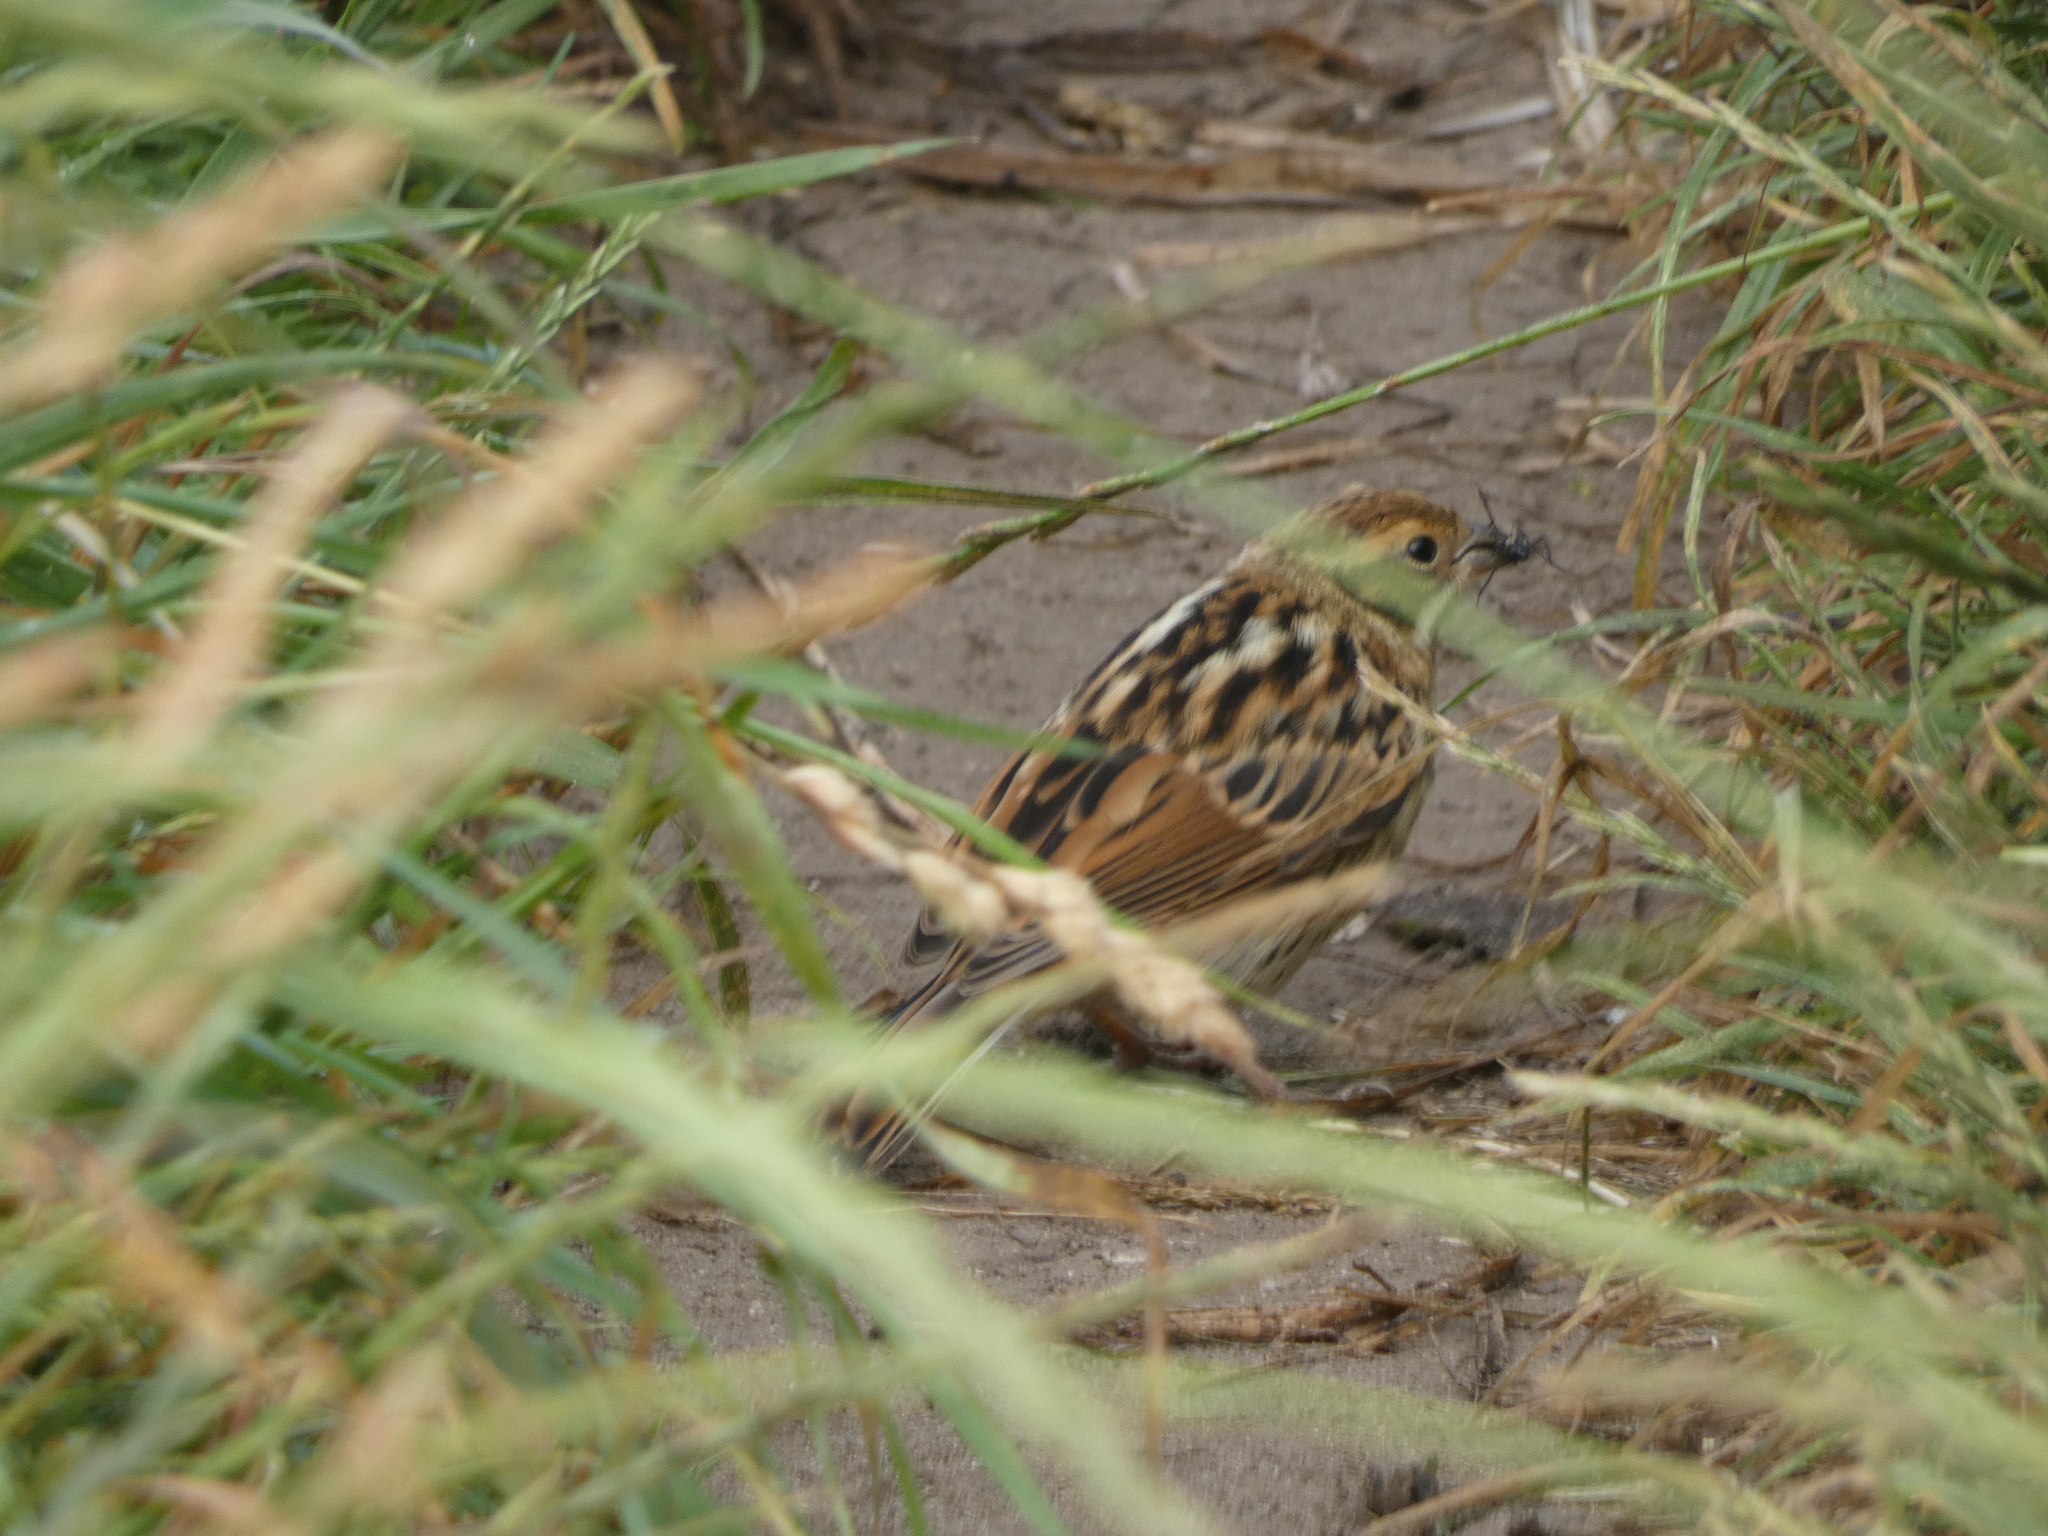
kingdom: Animalia
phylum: Chordata
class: Aves
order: Passeriformes
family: Emberizidae
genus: Emberiza
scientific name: Emberiza schoeniclus
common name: Reed bunting
